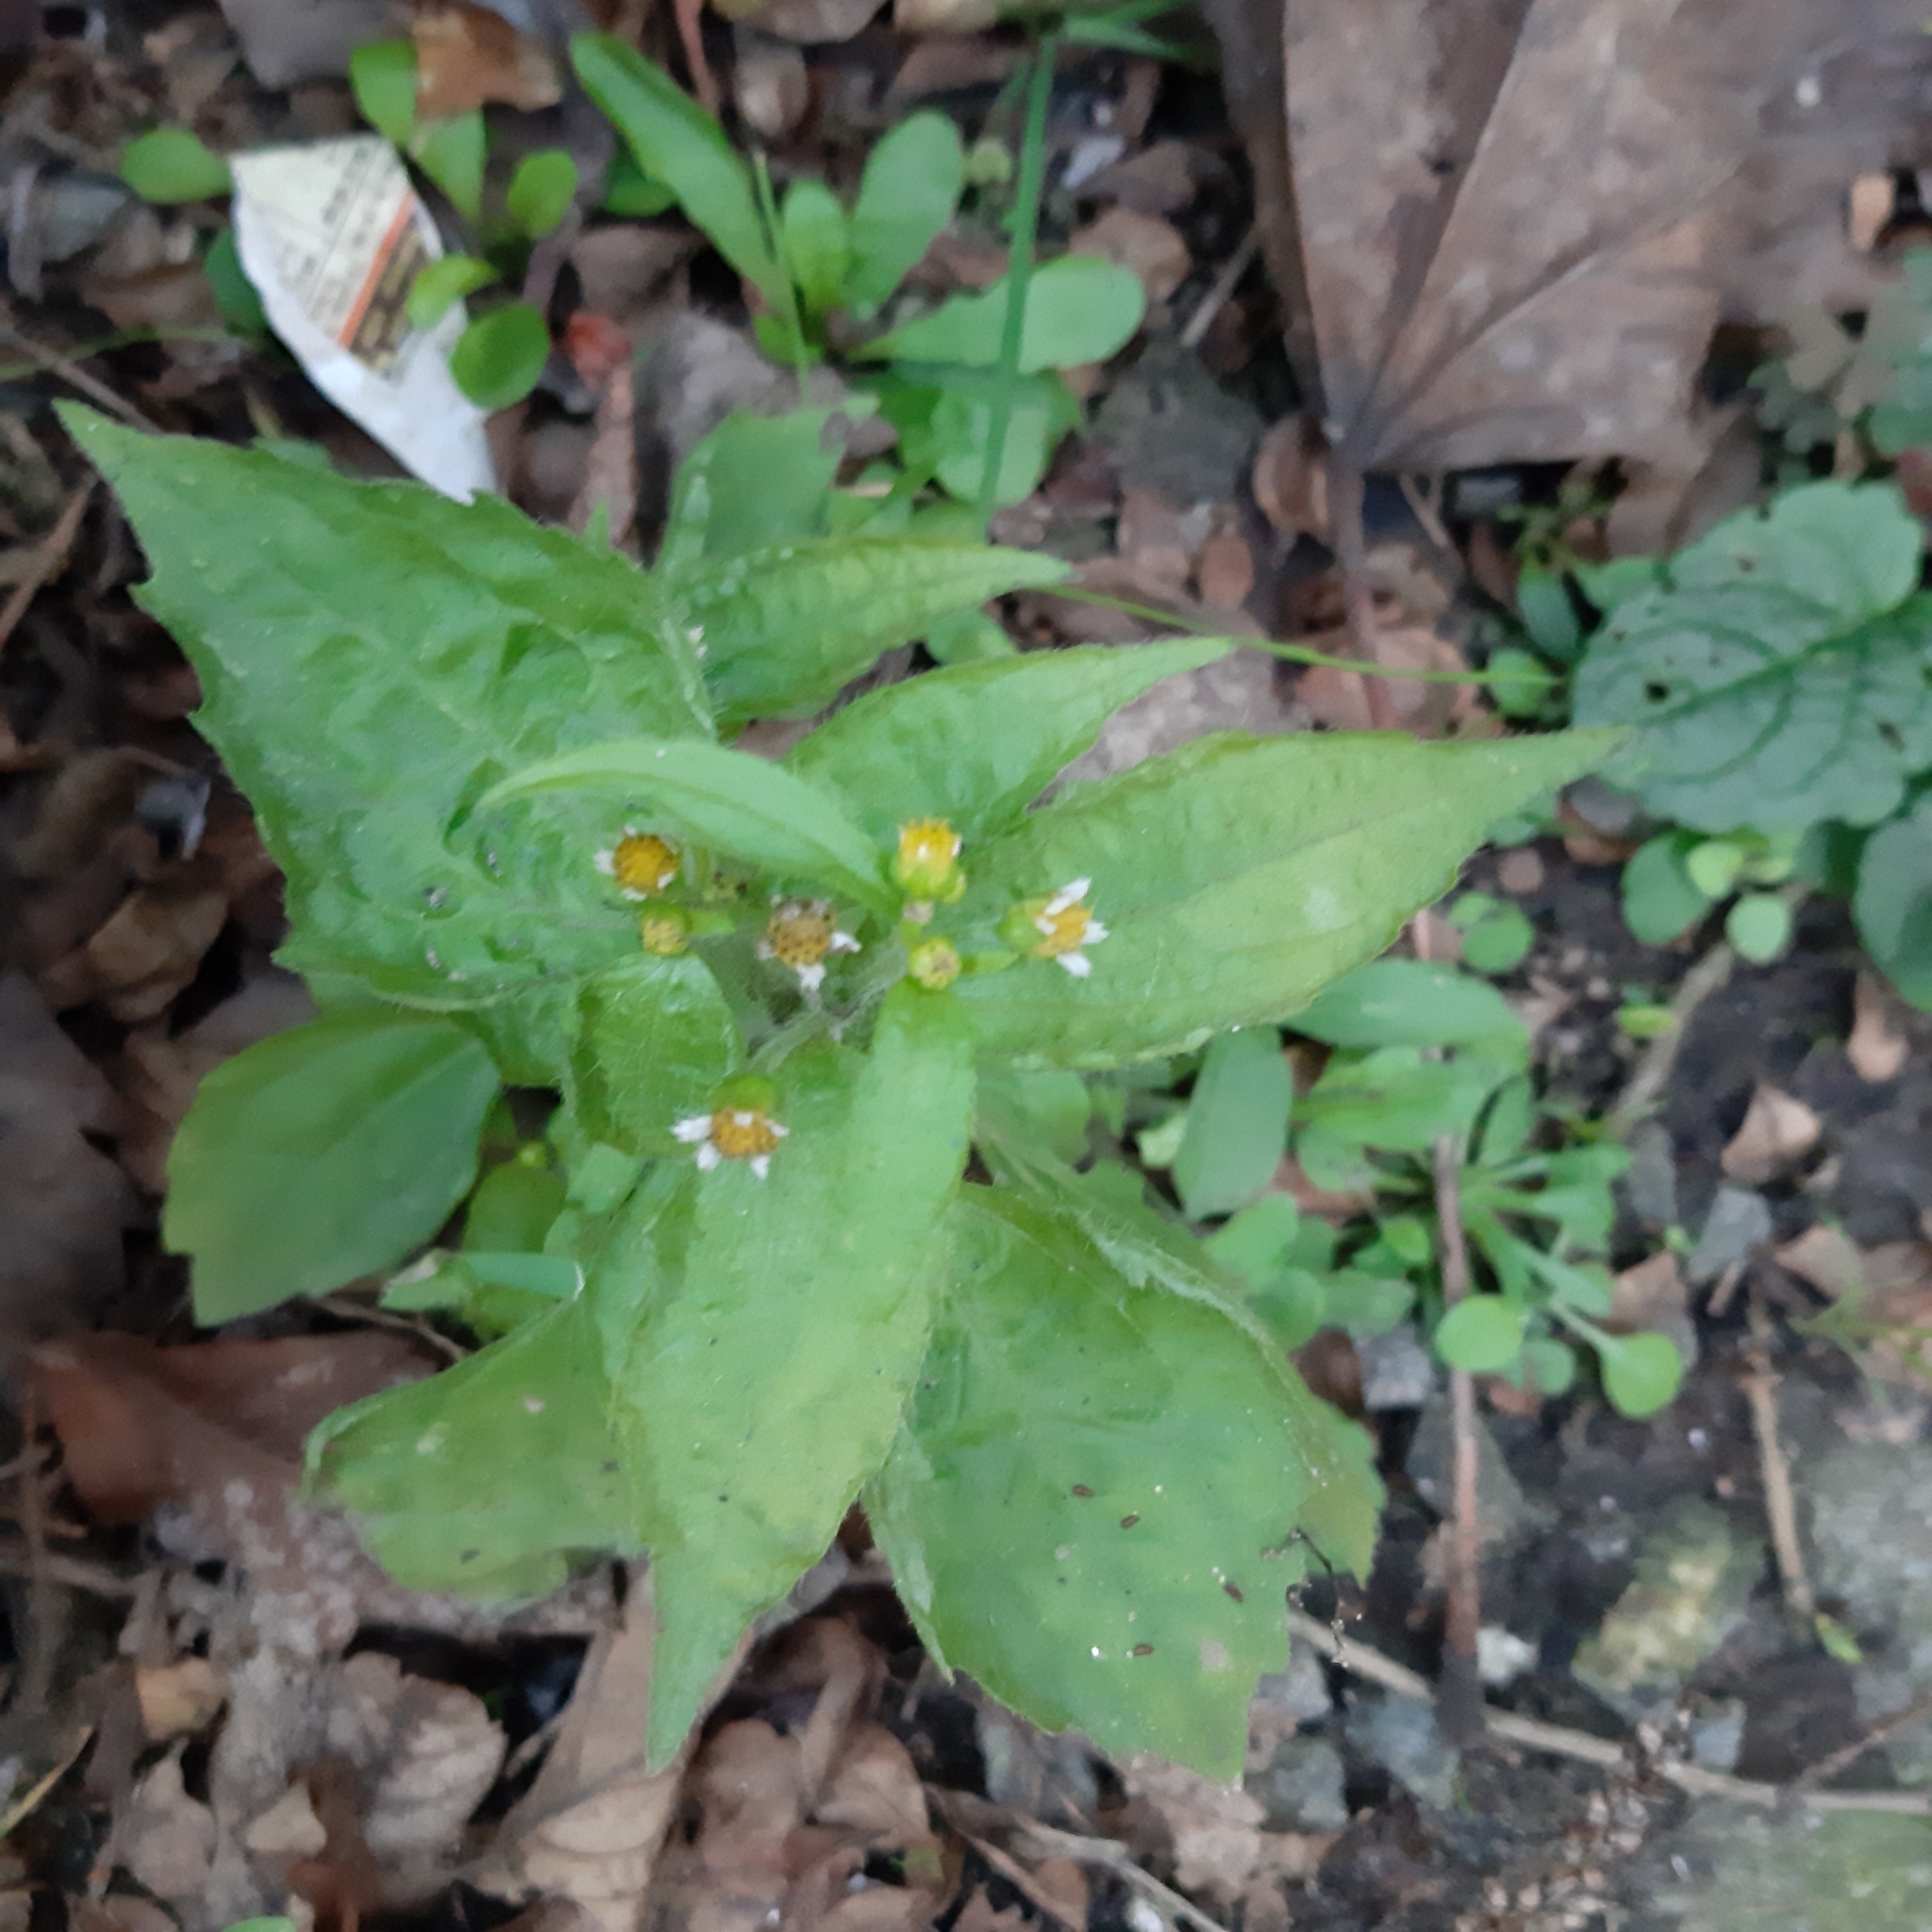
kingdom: Plantae
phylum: Tracheophyta
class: Magnoliopsida
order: Asterales
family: Asteraceae
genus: Galinsoga
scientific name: Galinsoga quadriradiata
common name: Shaggy soldier
